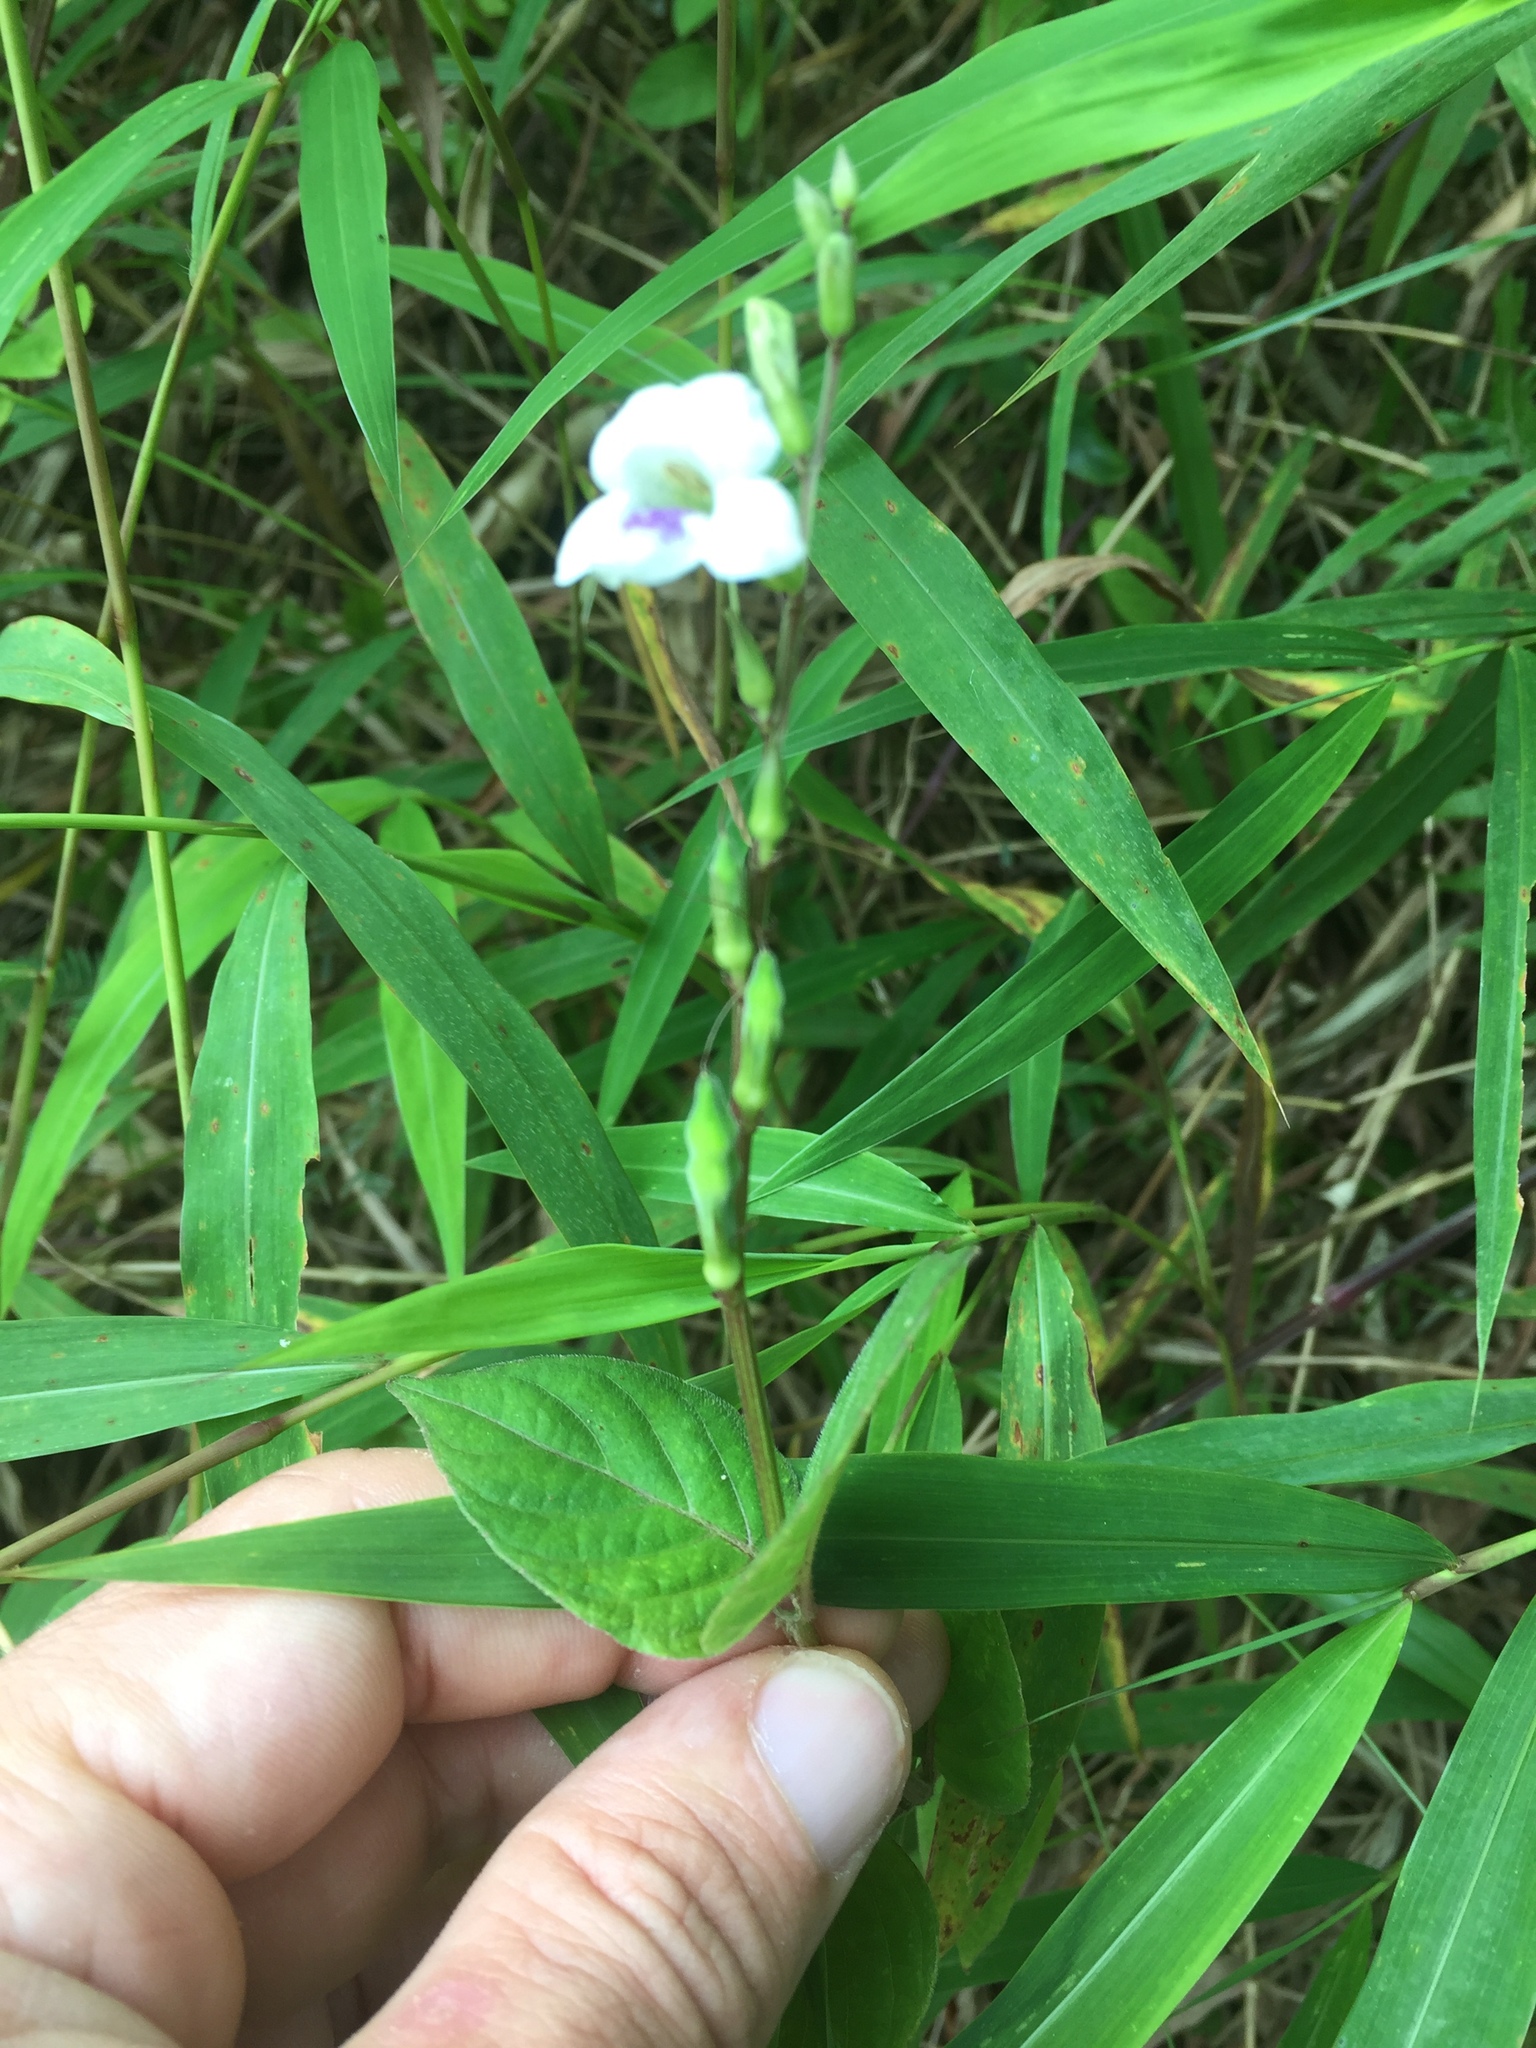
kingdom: Plantae
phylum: Tracheophyta
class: Magnoliopsida
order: Lamiales
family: Acanthaceae
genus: Asystasia
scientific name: Asystasia gangetica
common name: Chinese violet
